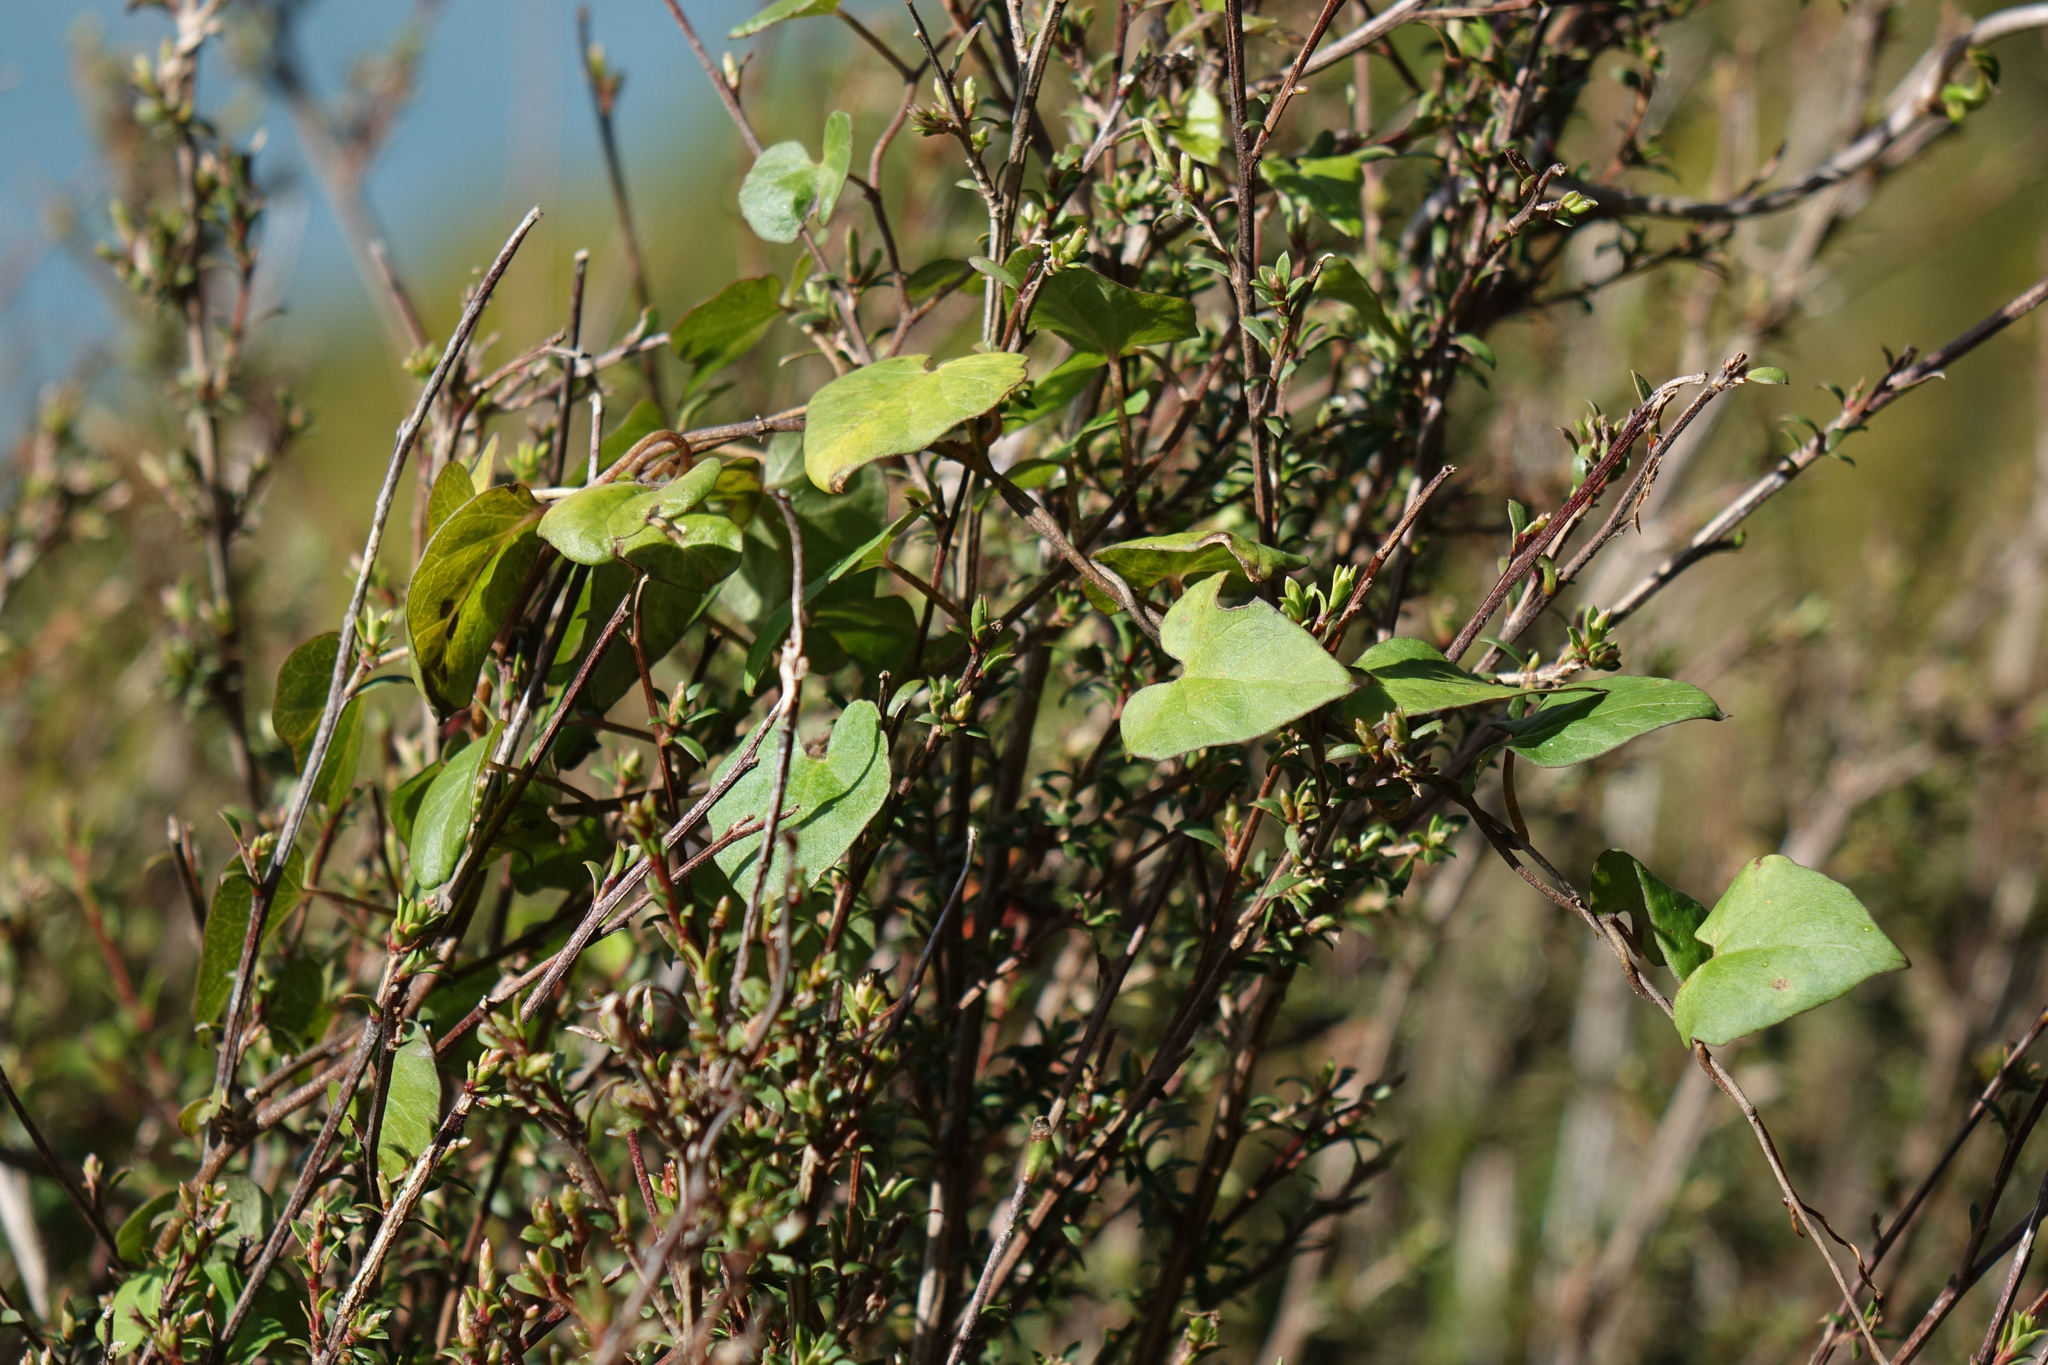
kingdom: Plantae
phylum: Tracheophyta
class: Magnoliopsida
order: Solanales
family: Convolvulaceae
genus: Calystegia
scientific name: Calystegia tuguriorum
